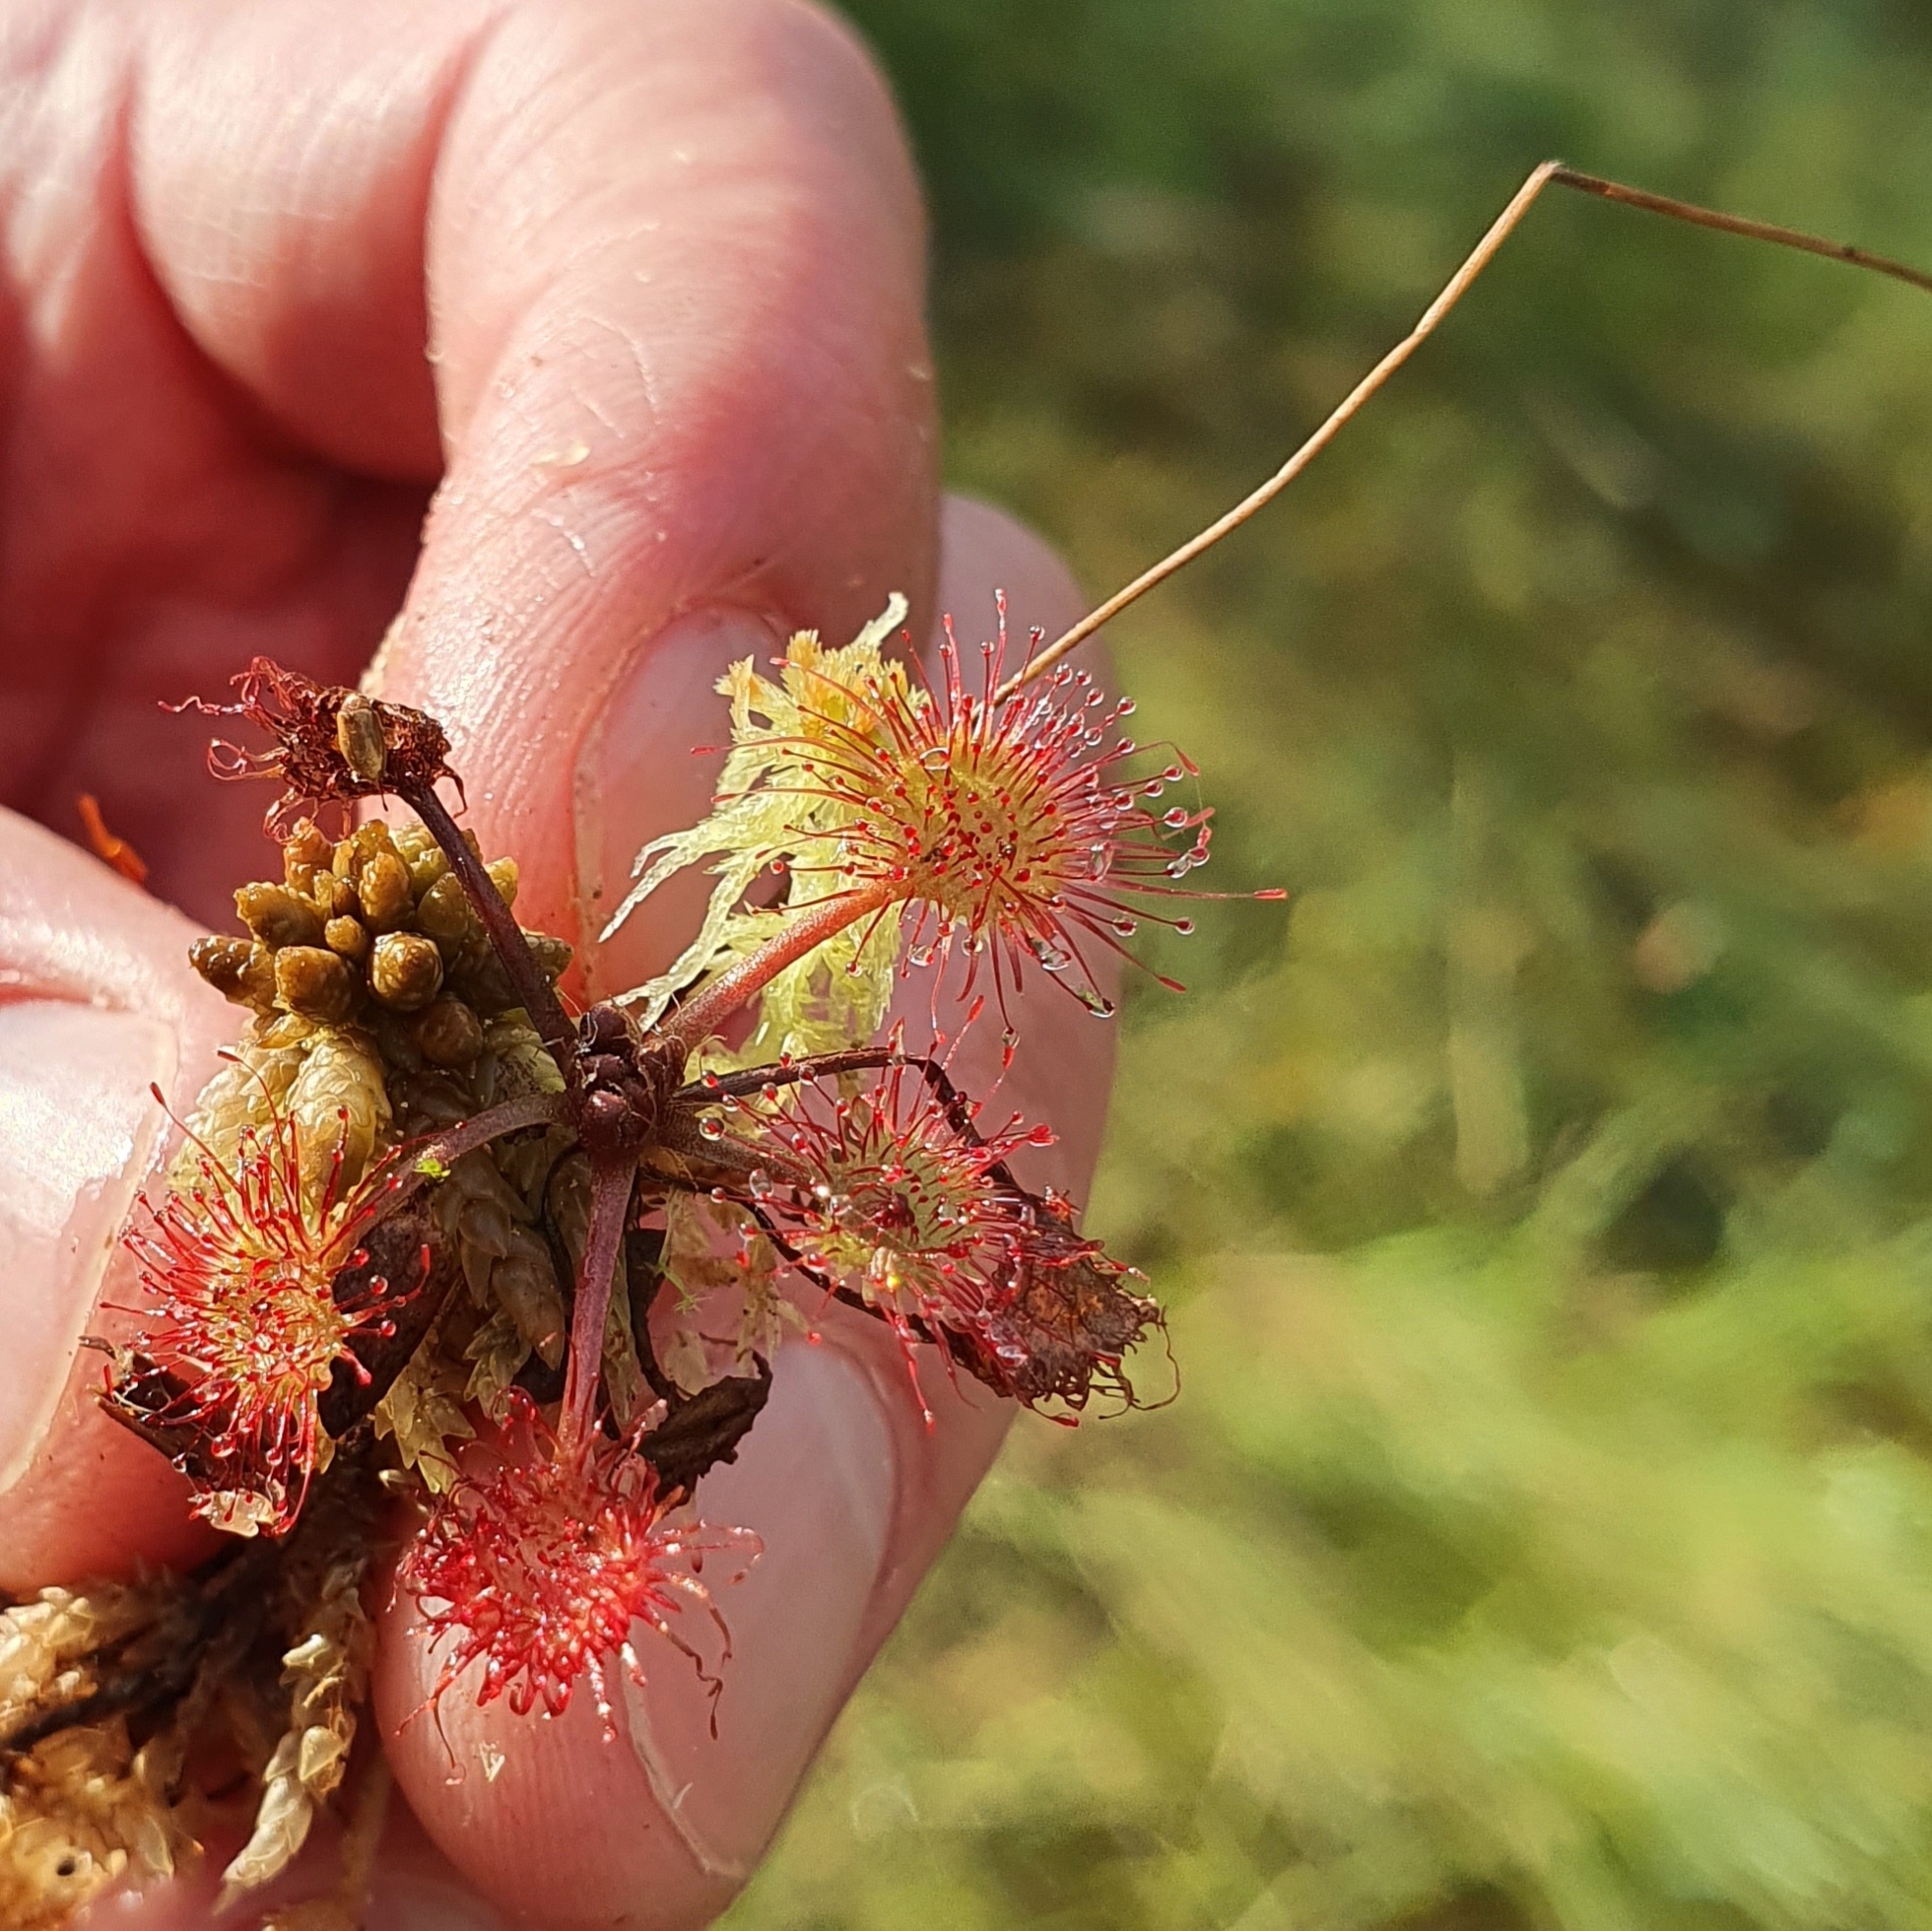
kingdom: Plantae
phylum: Tracheophyta
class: Magnoliopsida
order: Caryophyllales
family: Droseraceae
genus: Drosera
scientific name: Drosera rotundifolia
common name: Round-leaved sundew
